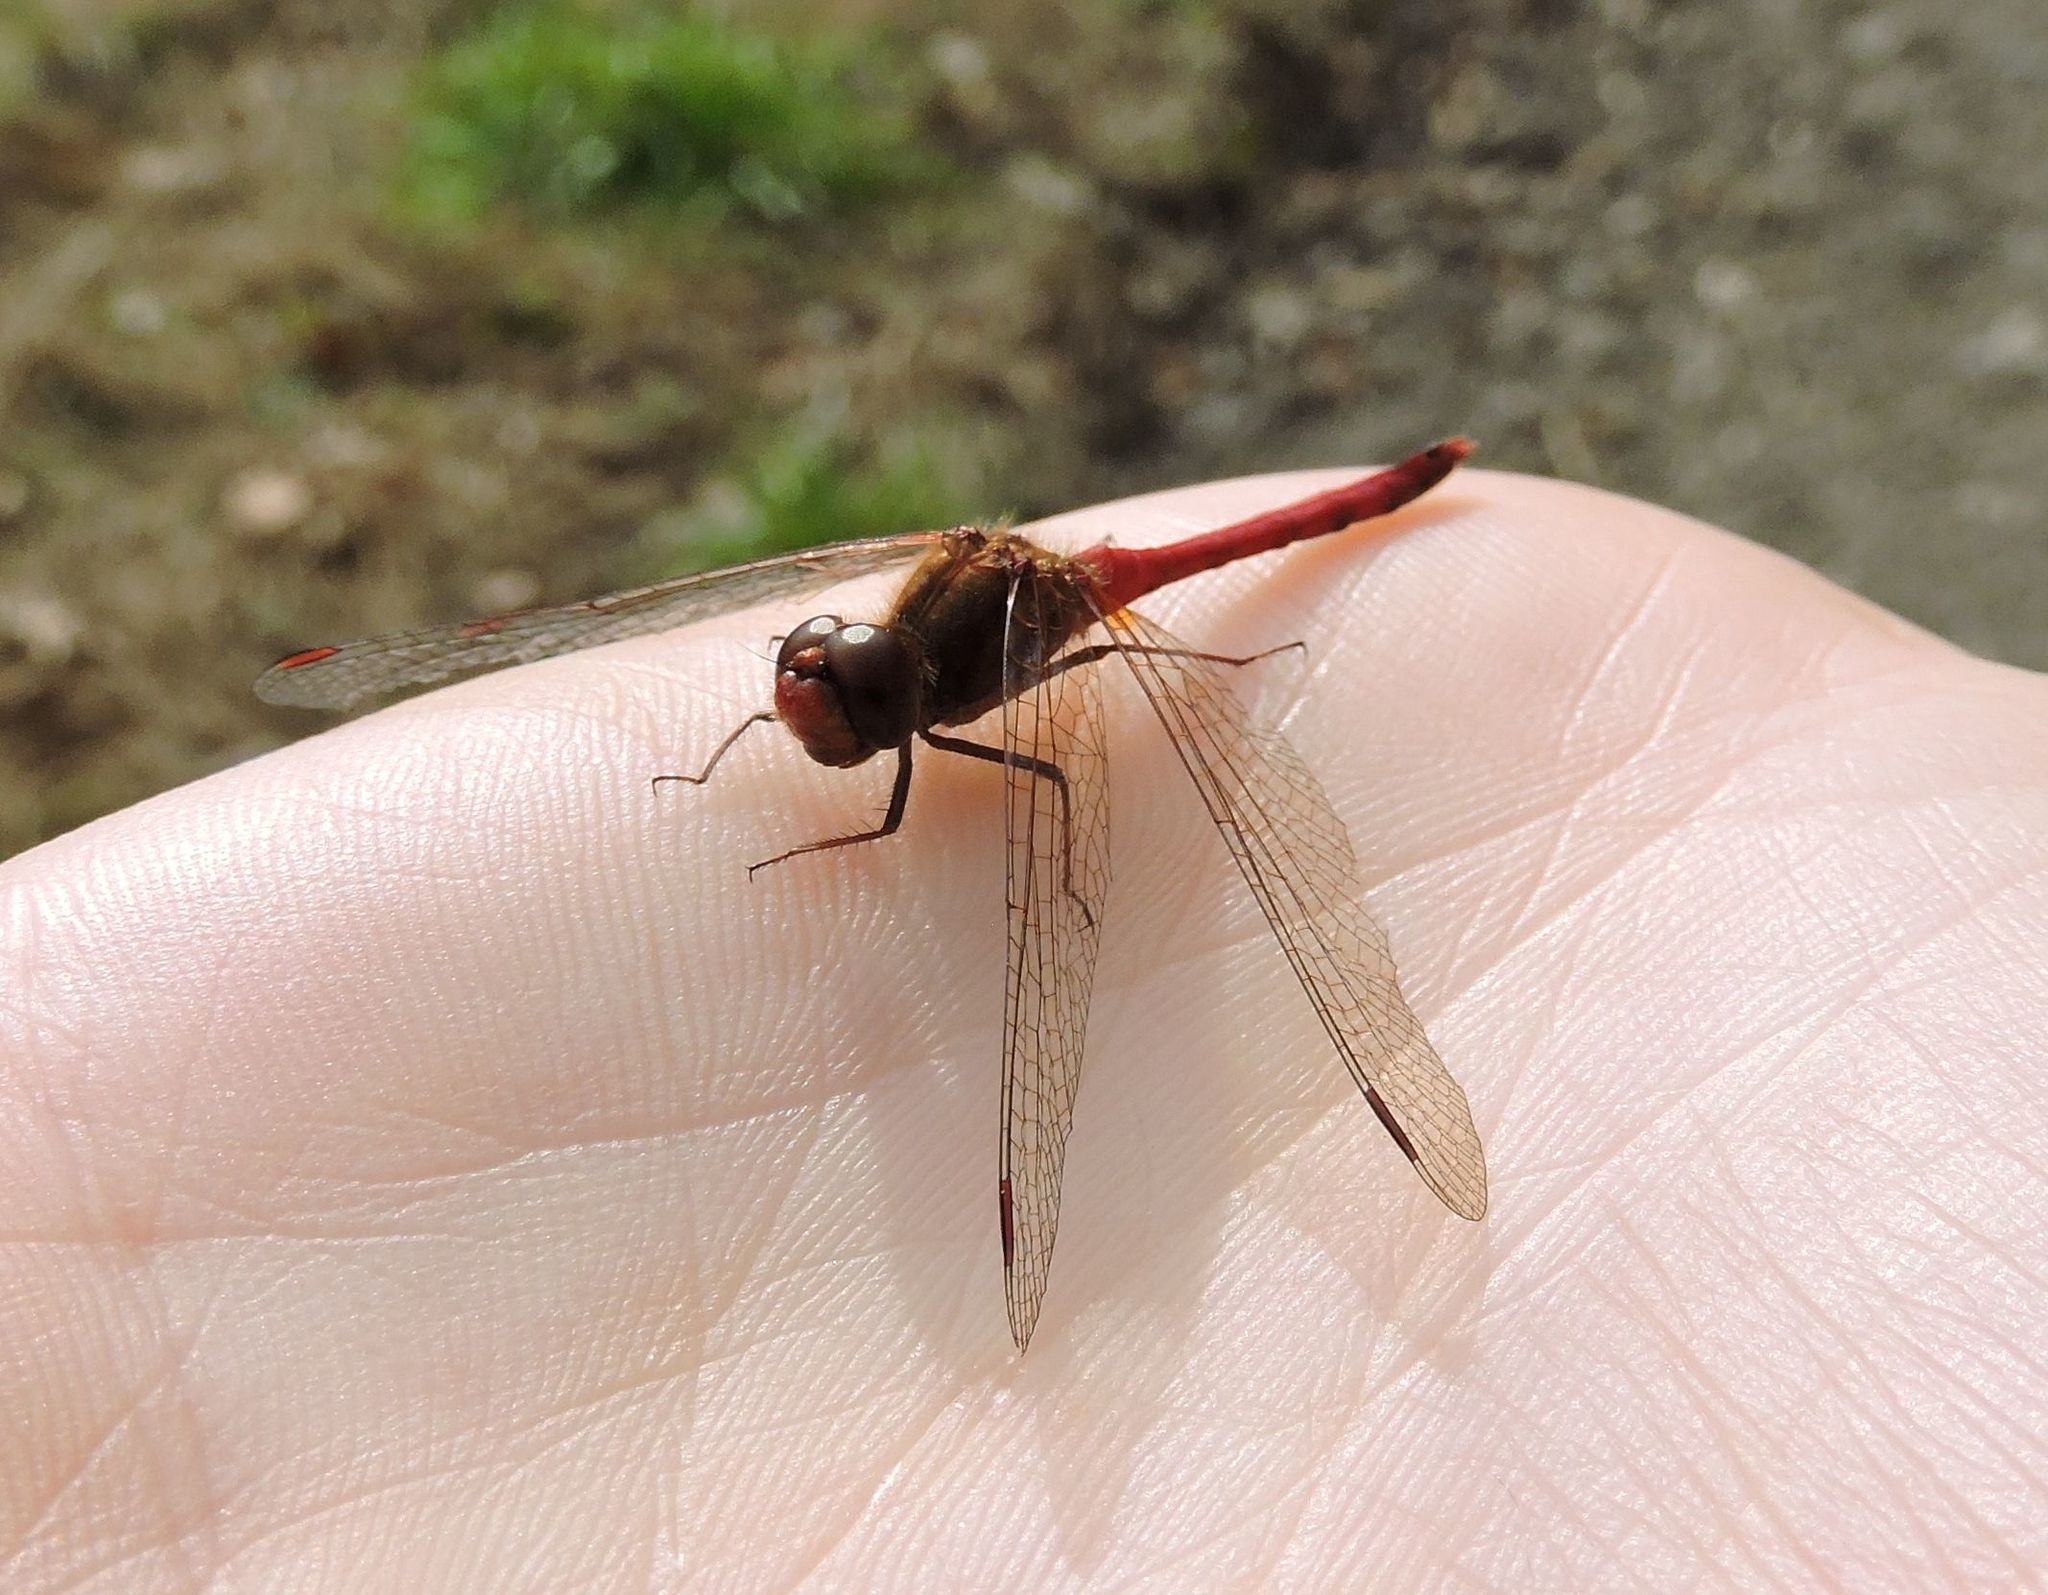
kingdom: Animalia
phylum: Arthropoda
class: Insecta
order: Odonata
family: Libellulidae
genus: Sympetrum
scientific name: Sympetrum vicinum
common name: Autumn meadowhawk
